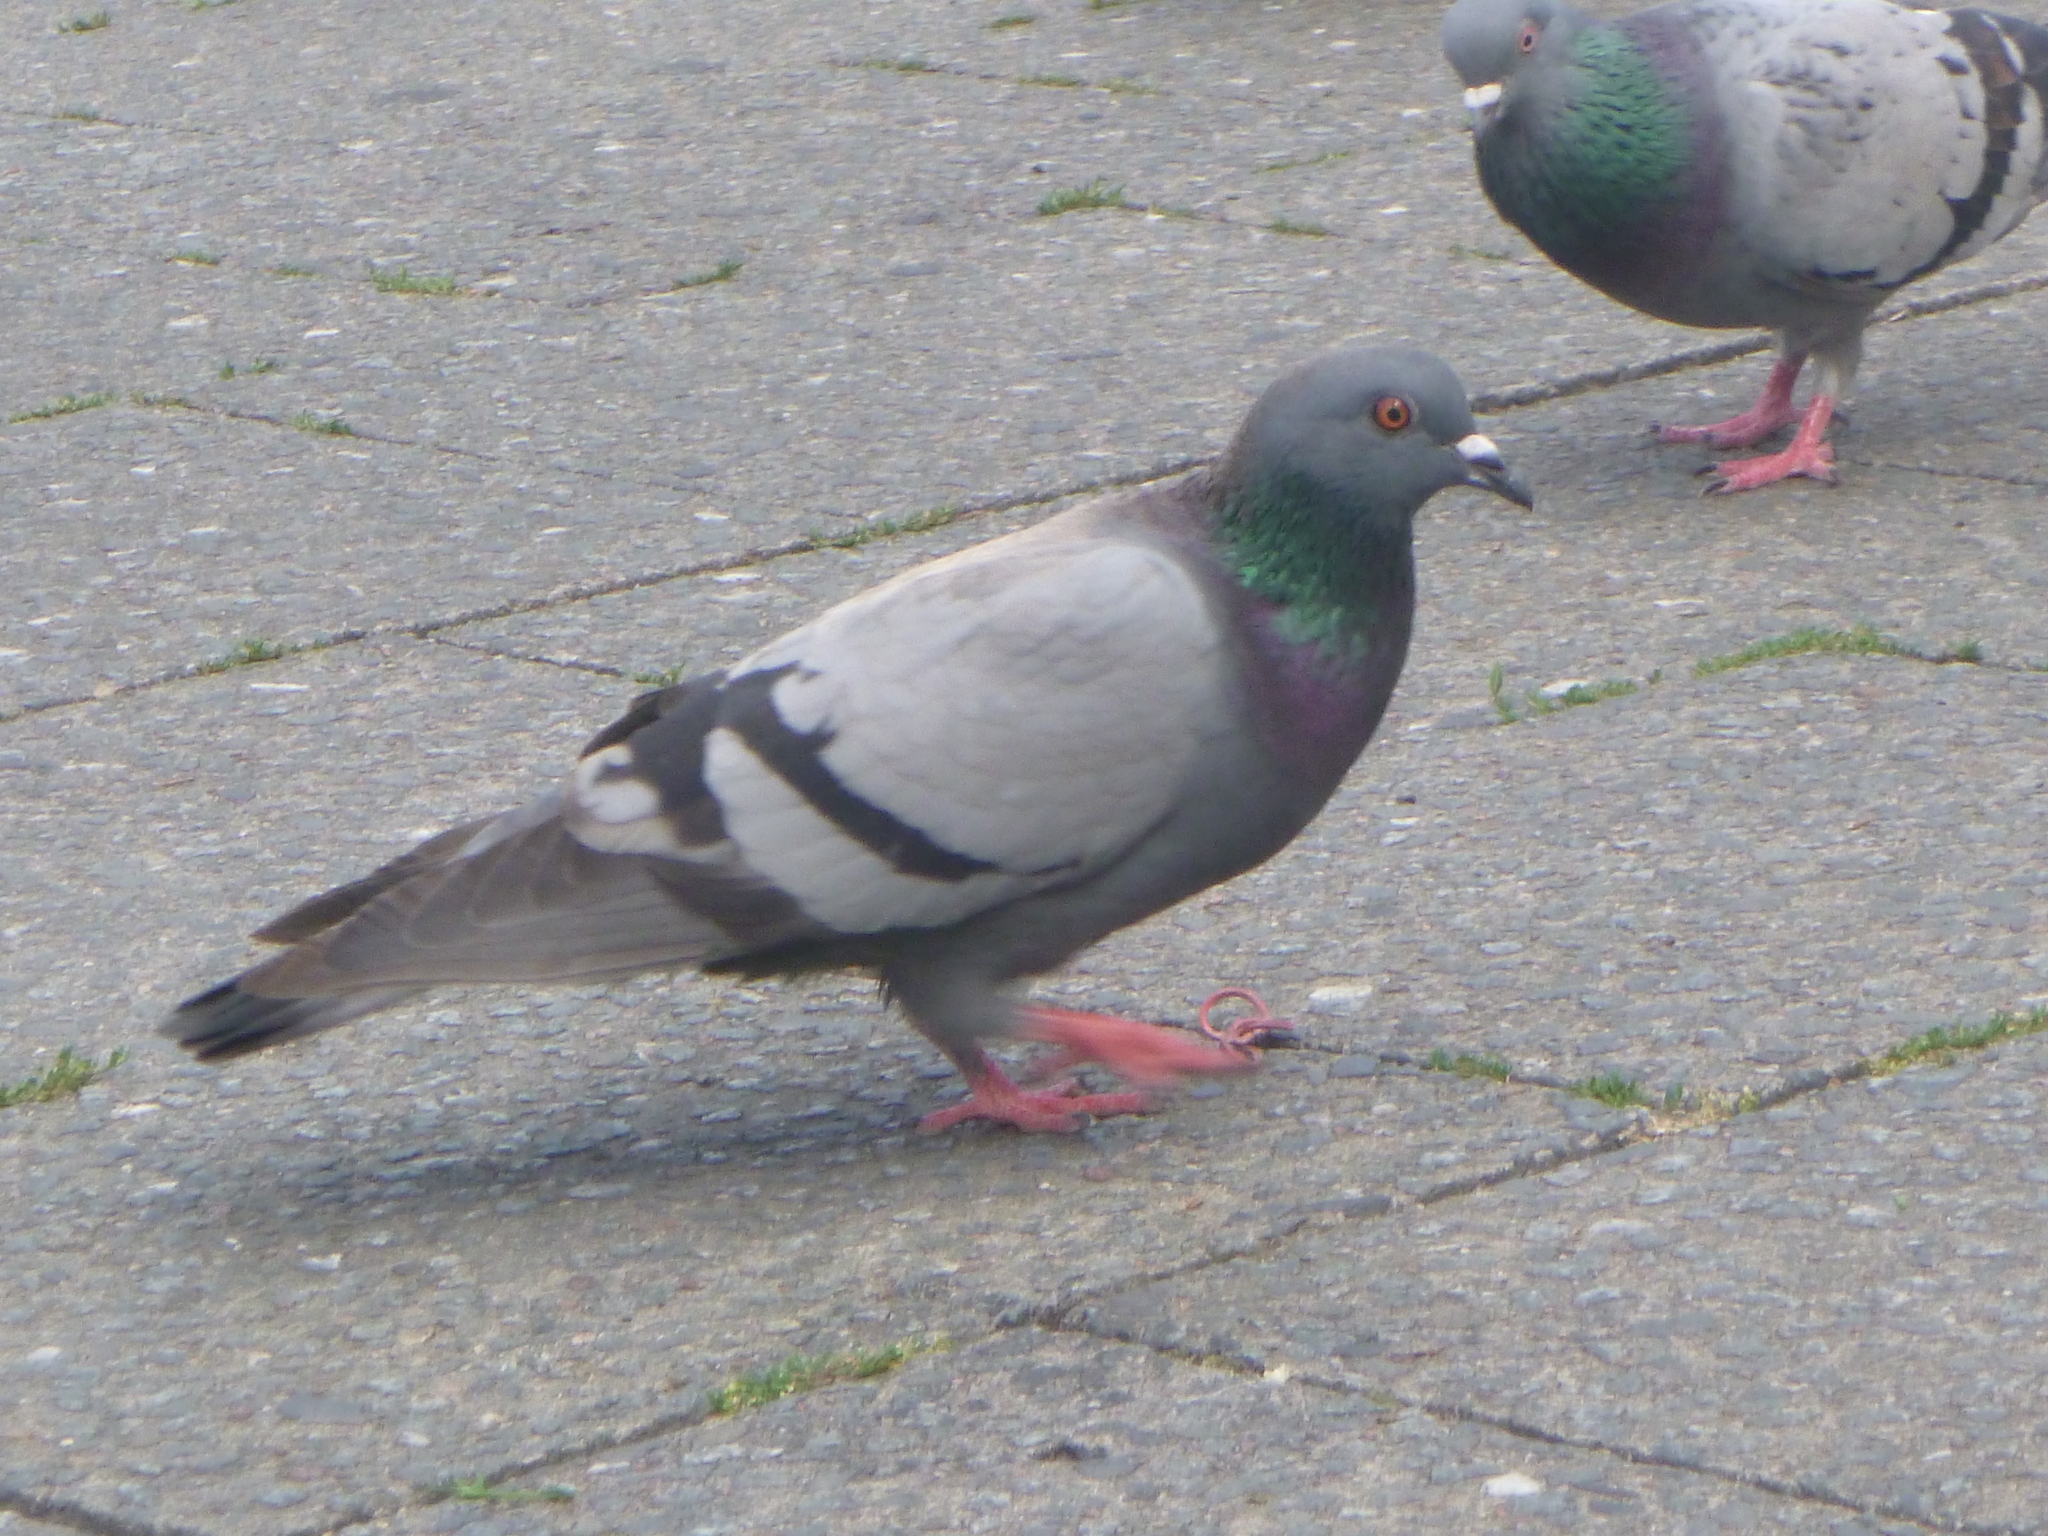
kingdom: Animalia
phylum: Chordata
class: Aves
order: Columbiformes
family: Columbidae
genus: Columba
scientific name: Columba livia
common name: Rock pigeon
